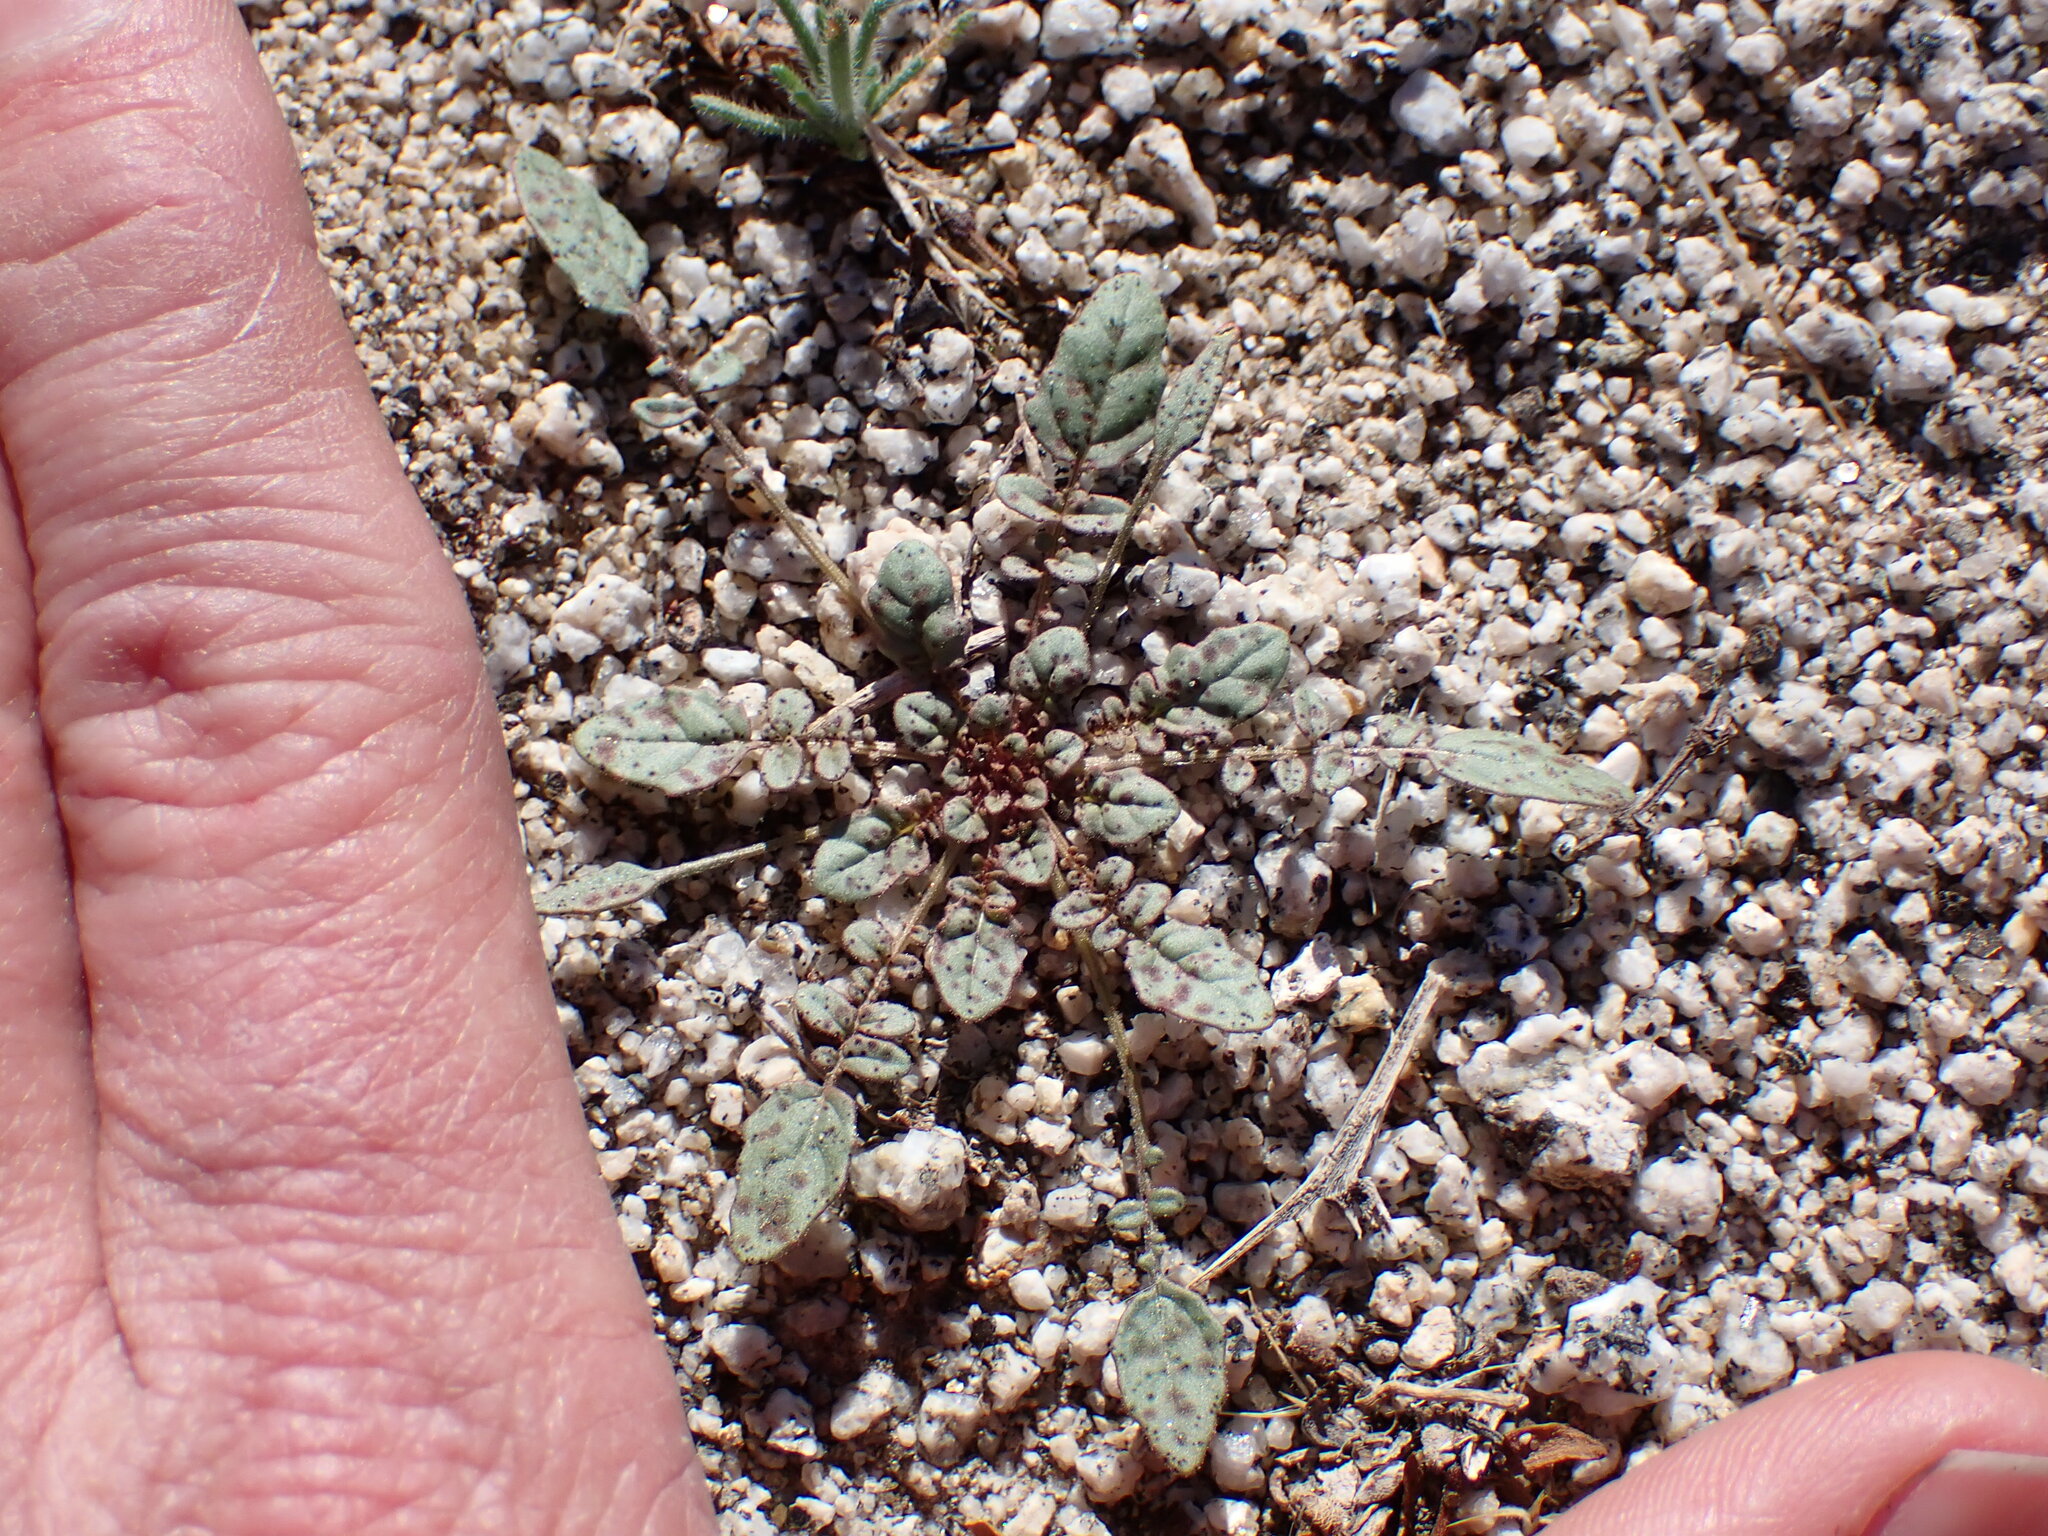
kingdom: Plantae
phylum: Tracheophyta
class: Magnoliopsida
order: Myrtales
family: Onagraceae
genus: Chylismia
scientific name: Chylismia claviformis
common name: Browneyes
